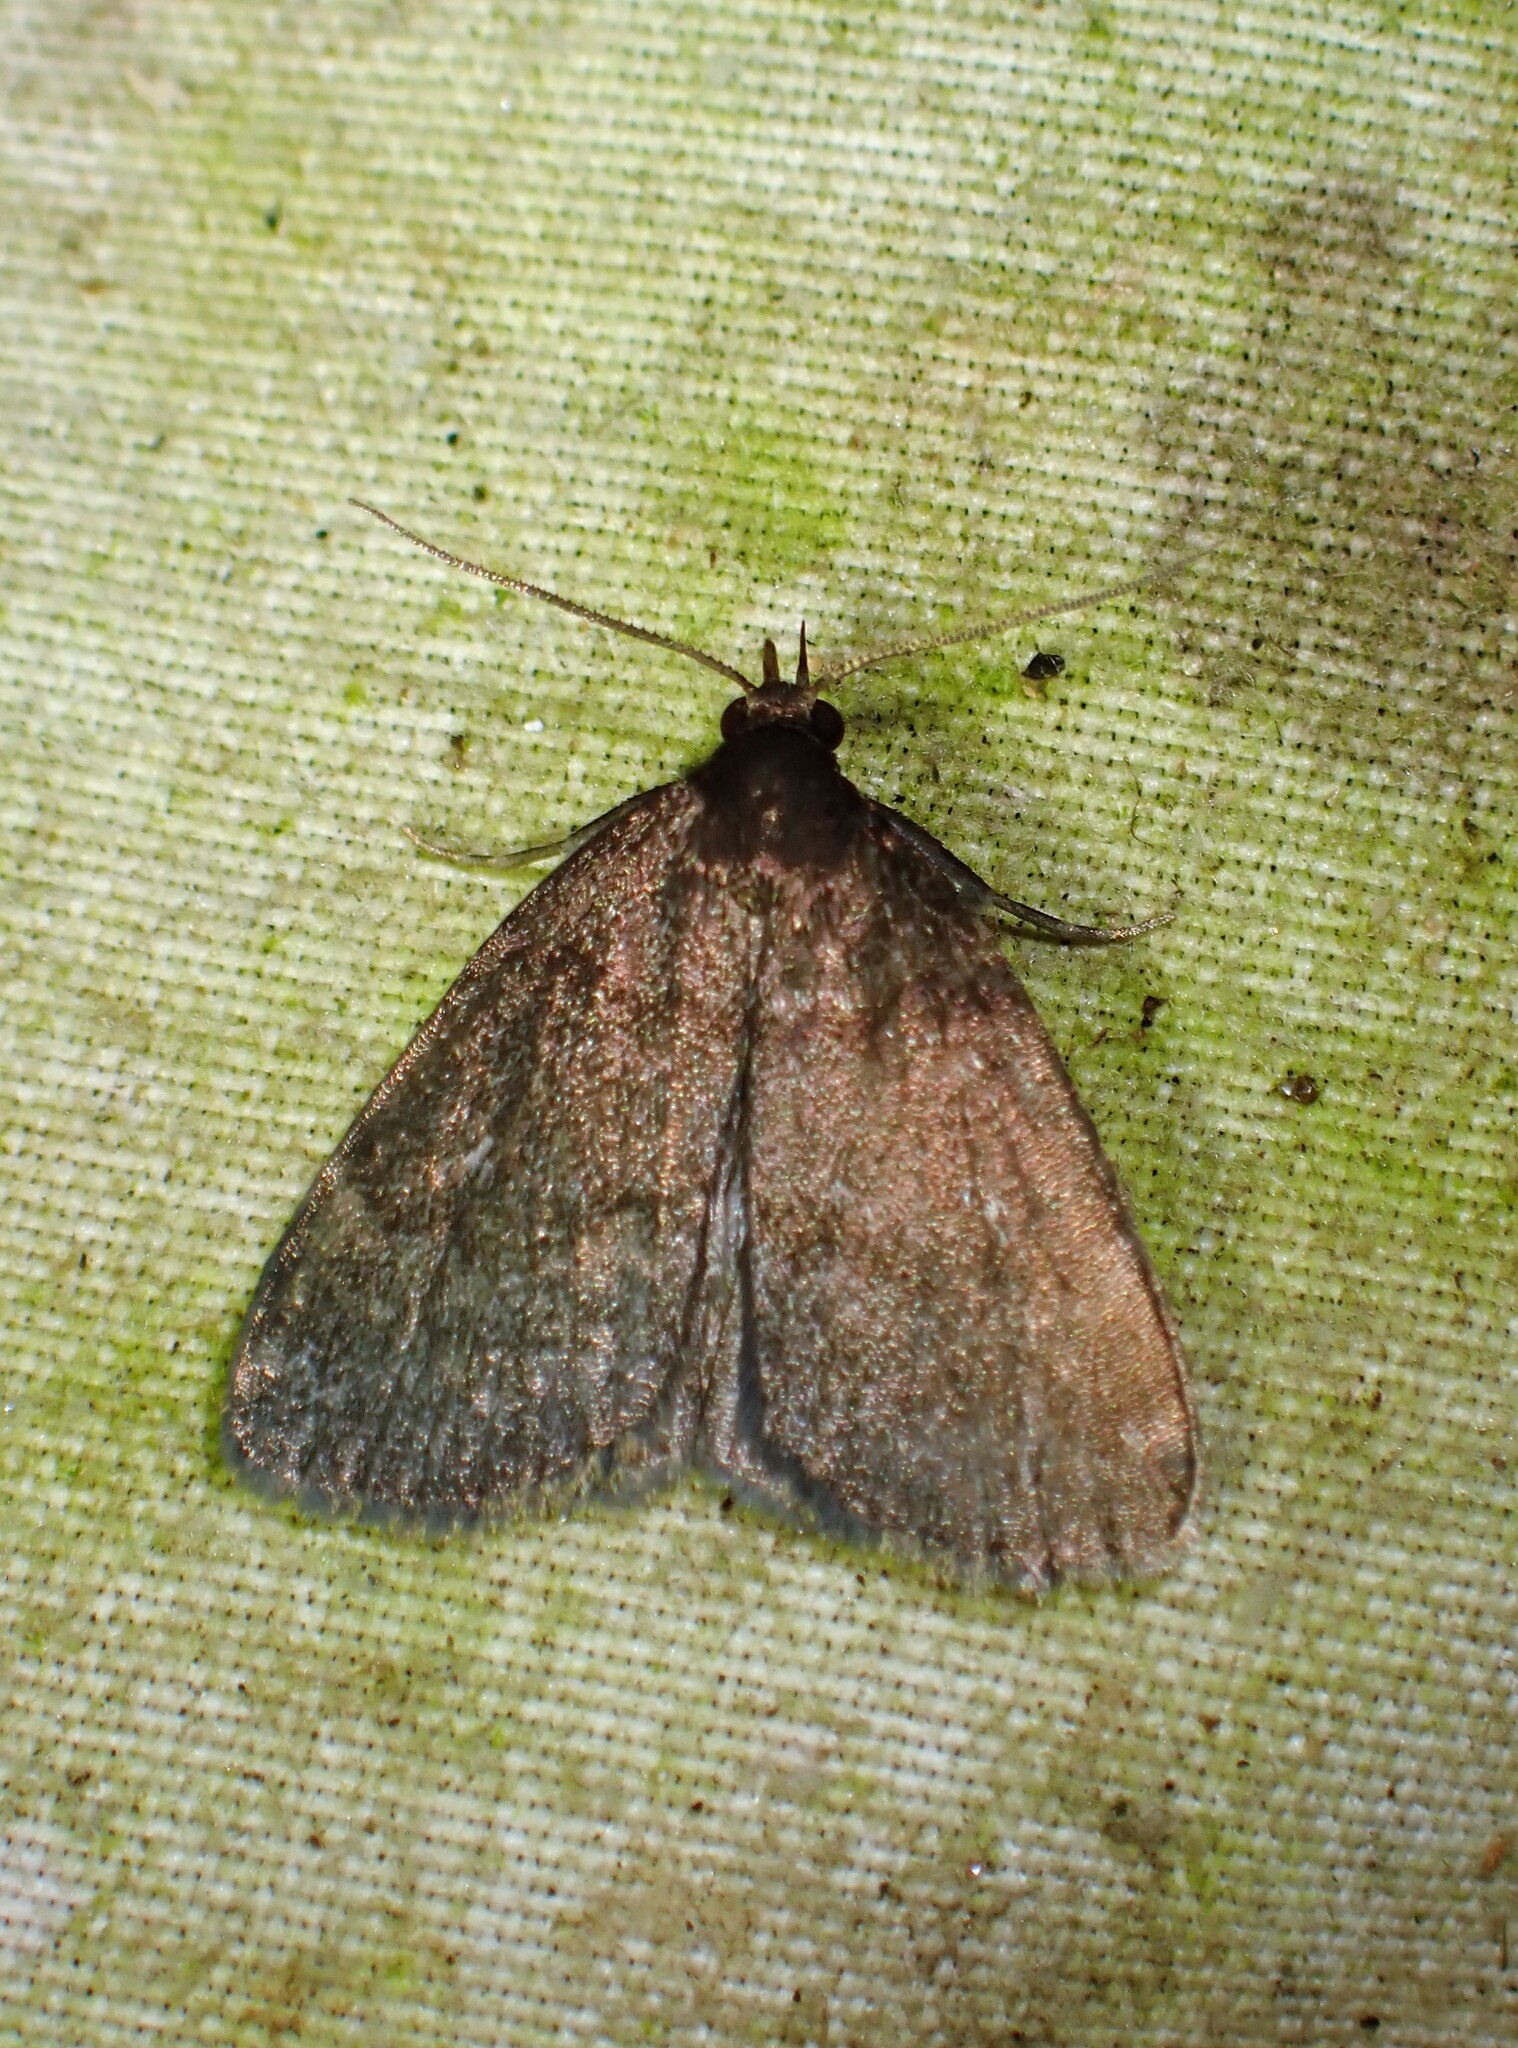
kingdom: Animalia
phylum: Arthropoda
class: Insecta
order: Lepidoptera
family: Erebidae
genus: Idia
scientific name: Idia rotundalis
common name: Rotund idia moth
